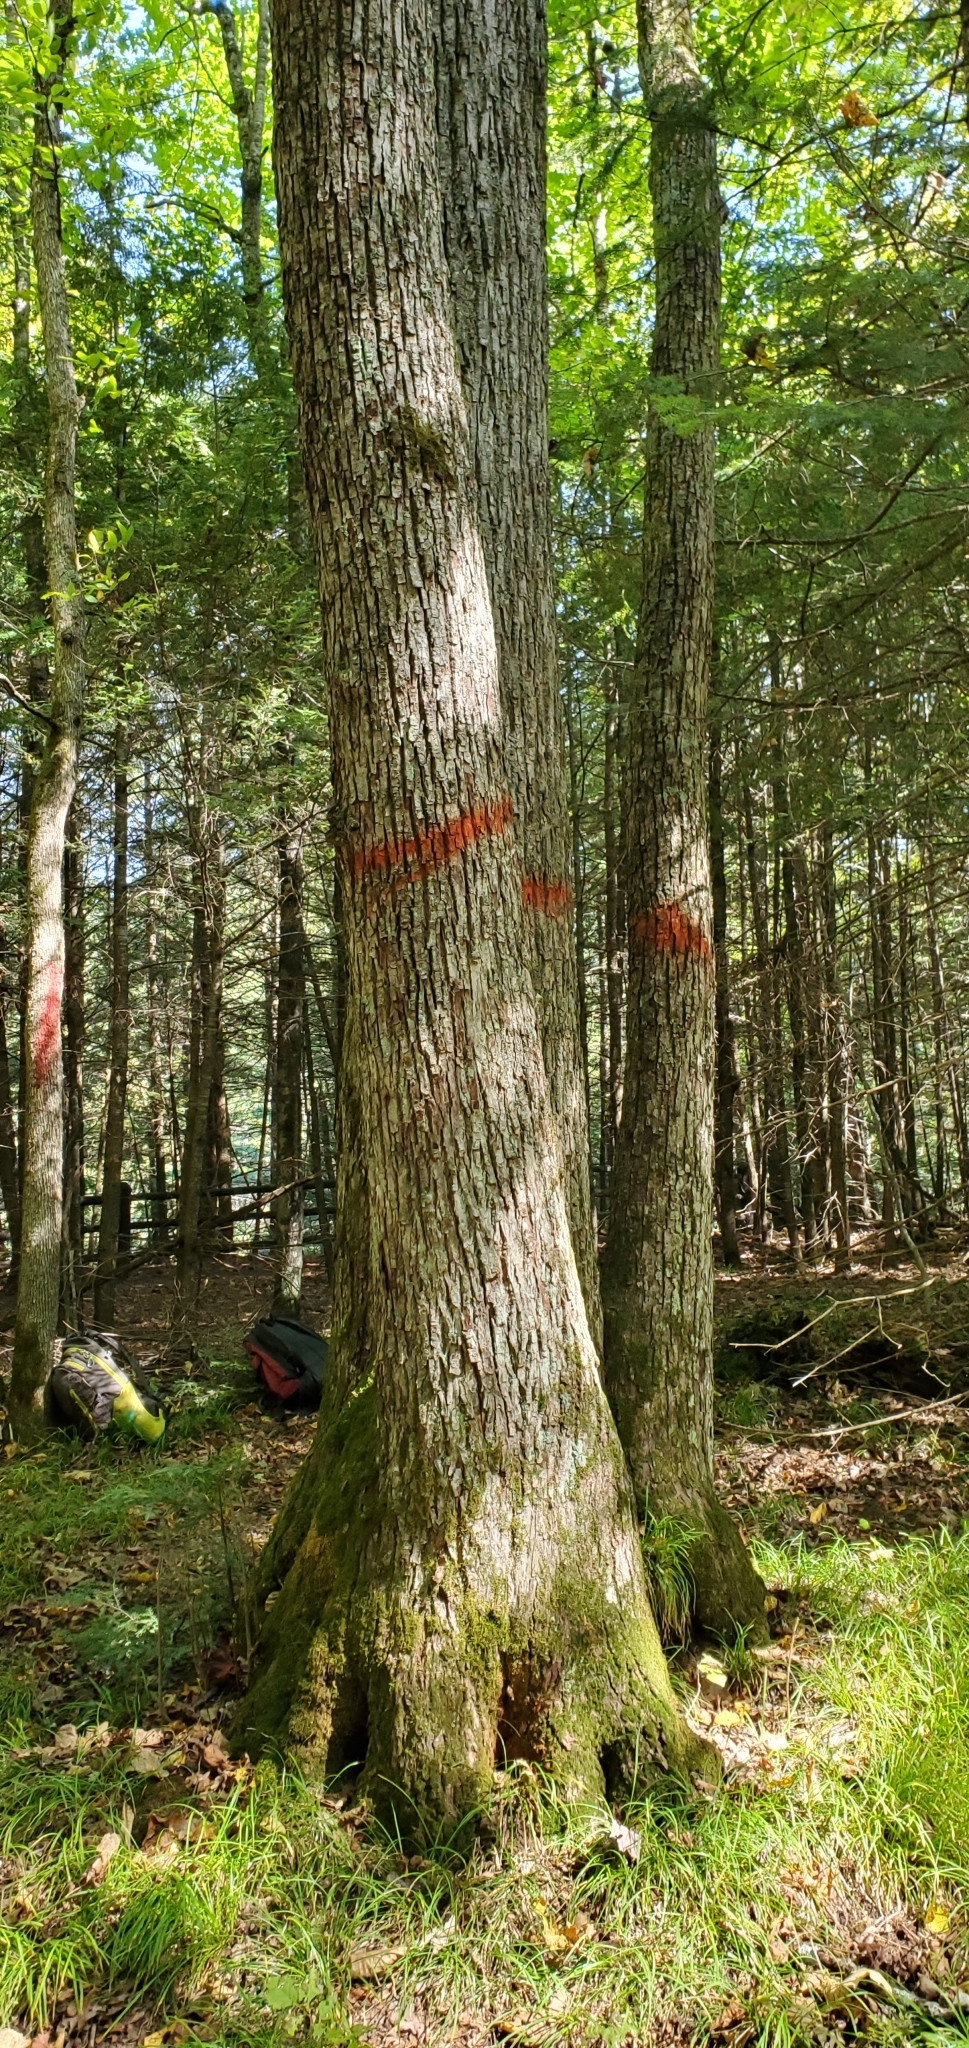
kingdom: Plantae
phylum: Tracheophyta
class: Magnoliopsida
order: Malvales
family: Malvaceae
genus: Tilia
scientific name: Tilia americana
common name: Basswood
